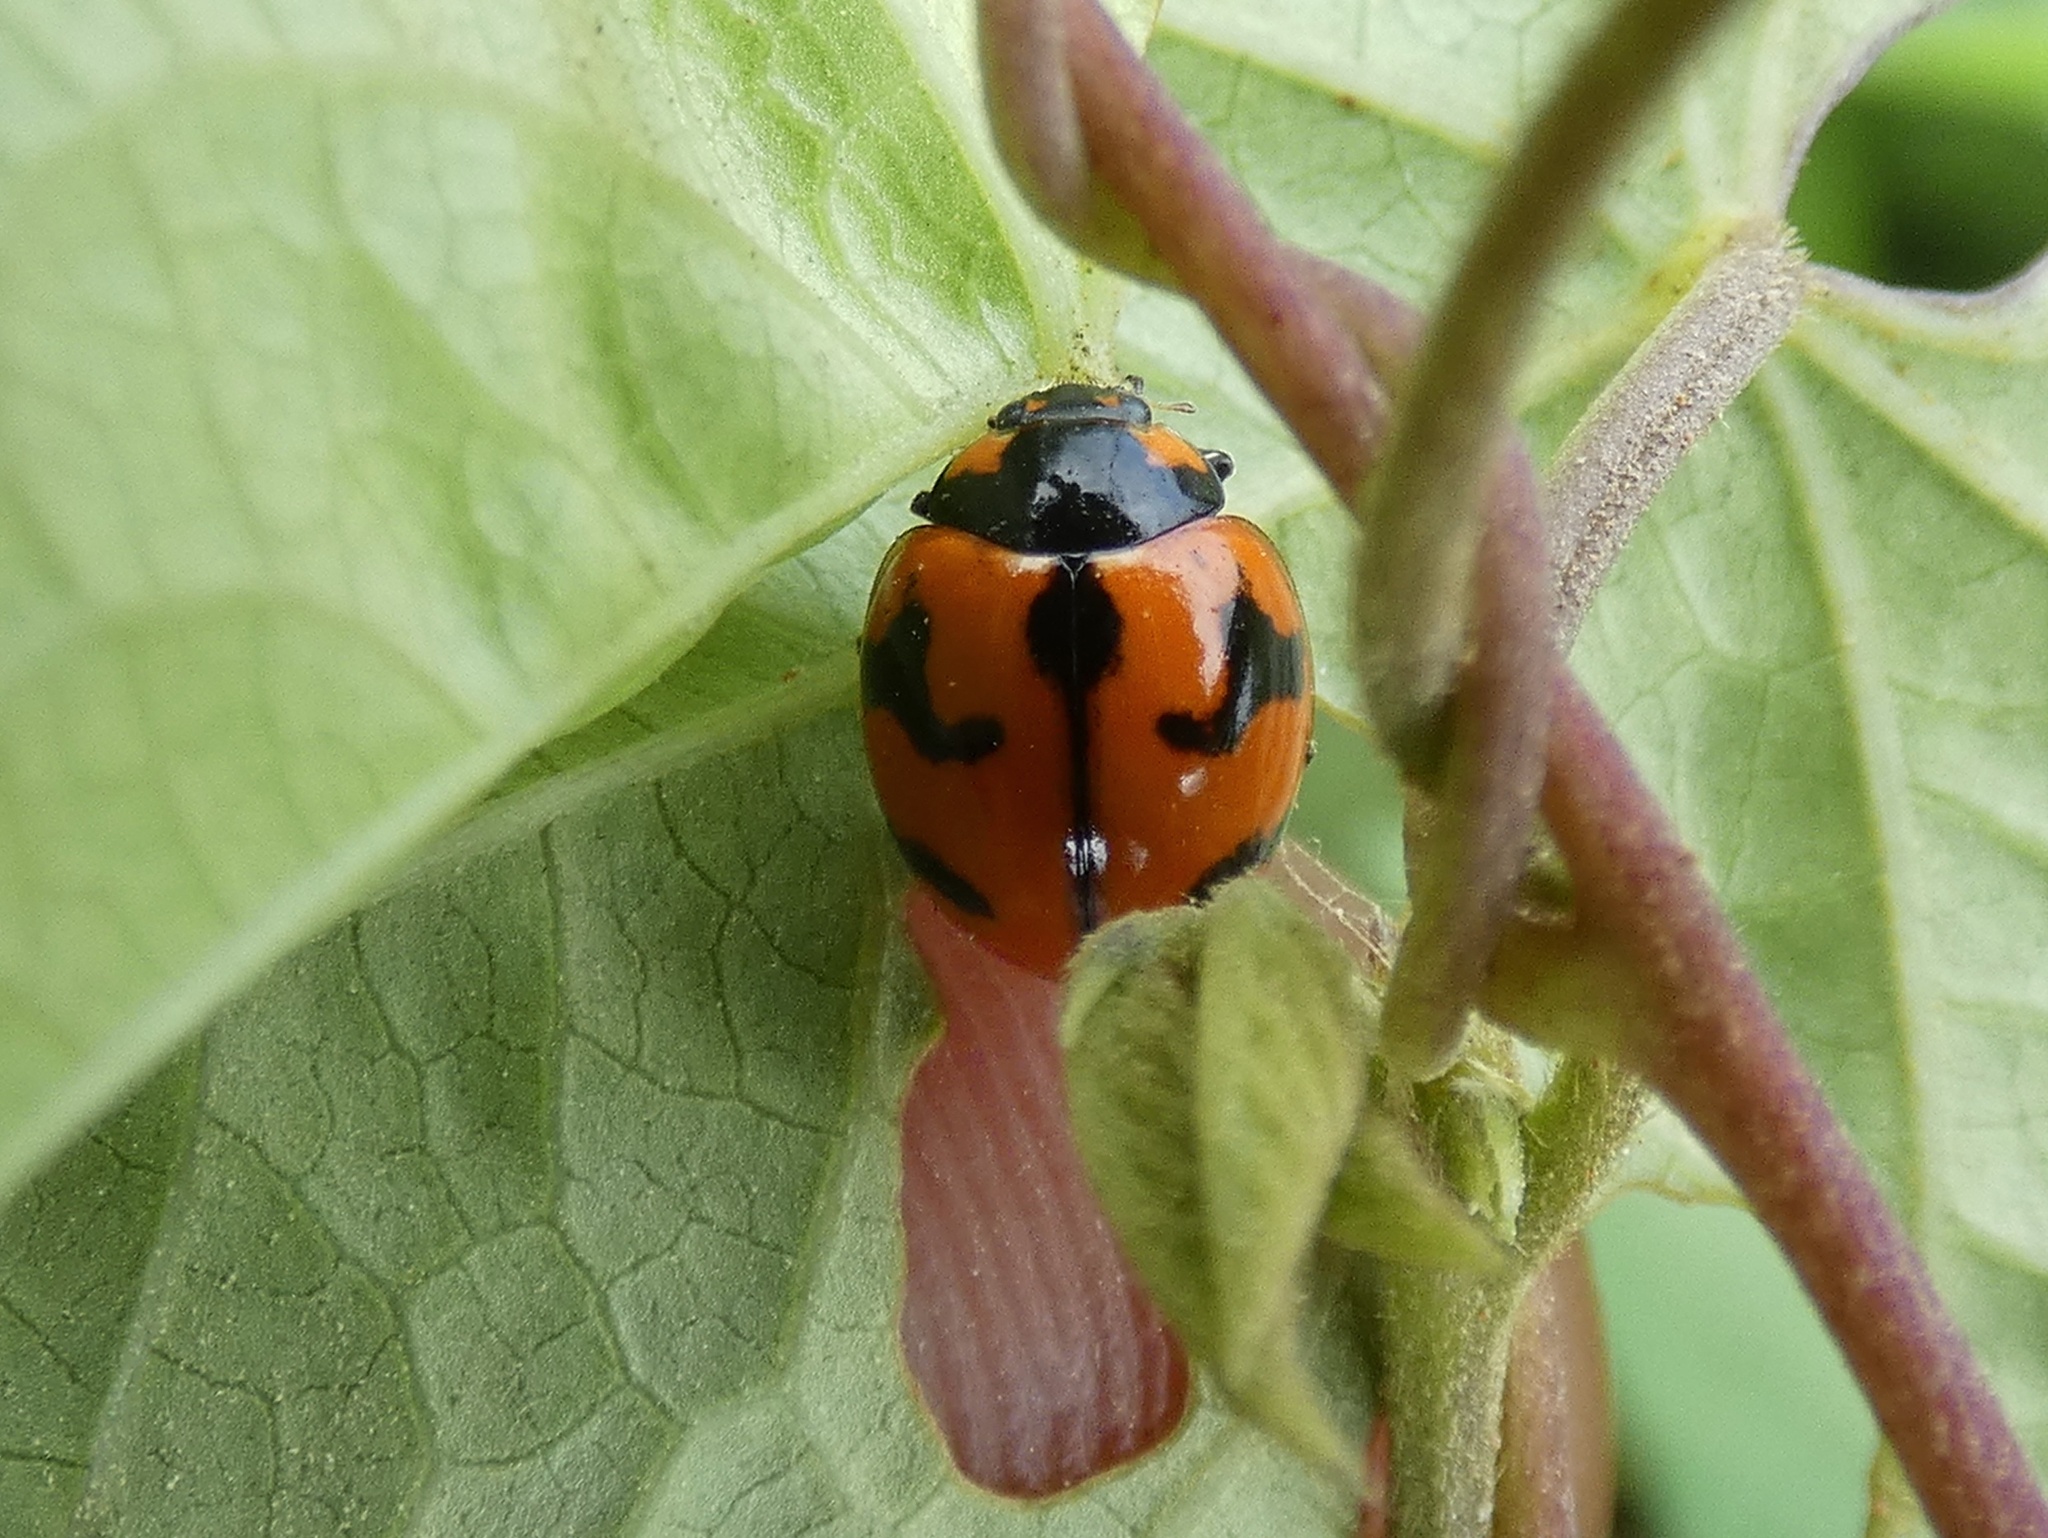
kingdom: Animalia
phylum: Arthropoda
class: Insecta
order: Coleoptera
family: Coccinellidae
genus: Coccinella
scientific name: Coccinella transversalis
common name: Transverse lady beetle
